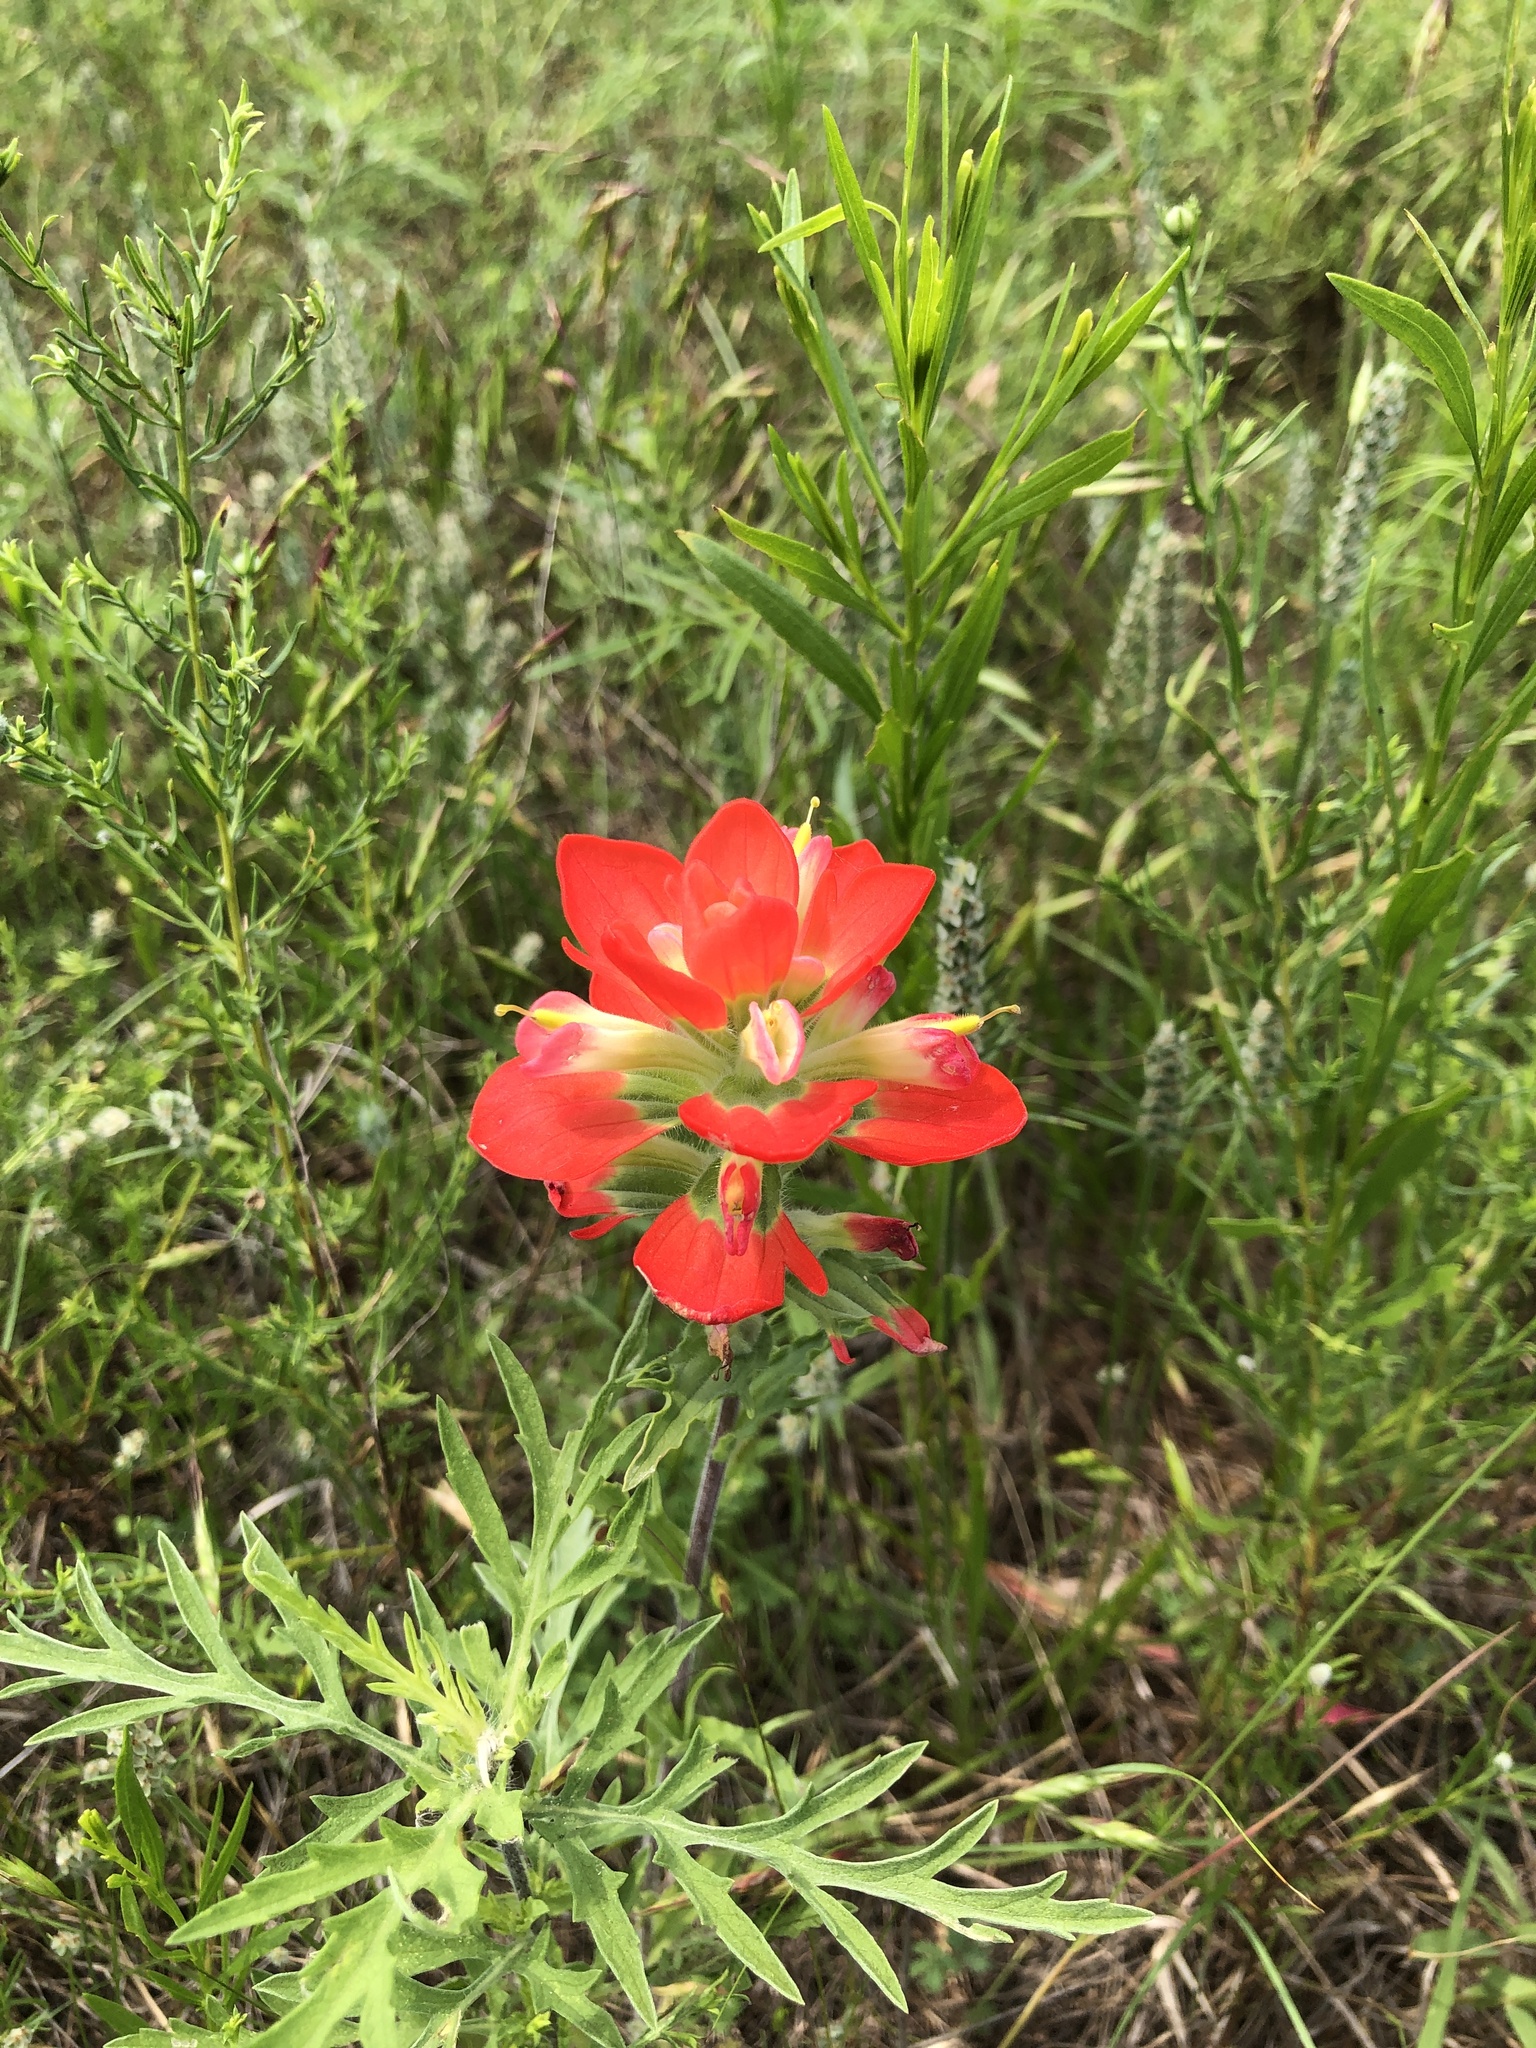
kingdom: Plantae
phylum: Tracheophyta
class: Magnoliopsida
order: Lamiales
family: Orobanchaceae
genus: Castilleja
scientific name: Castilleja indivisa
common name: Texas paintbrush
